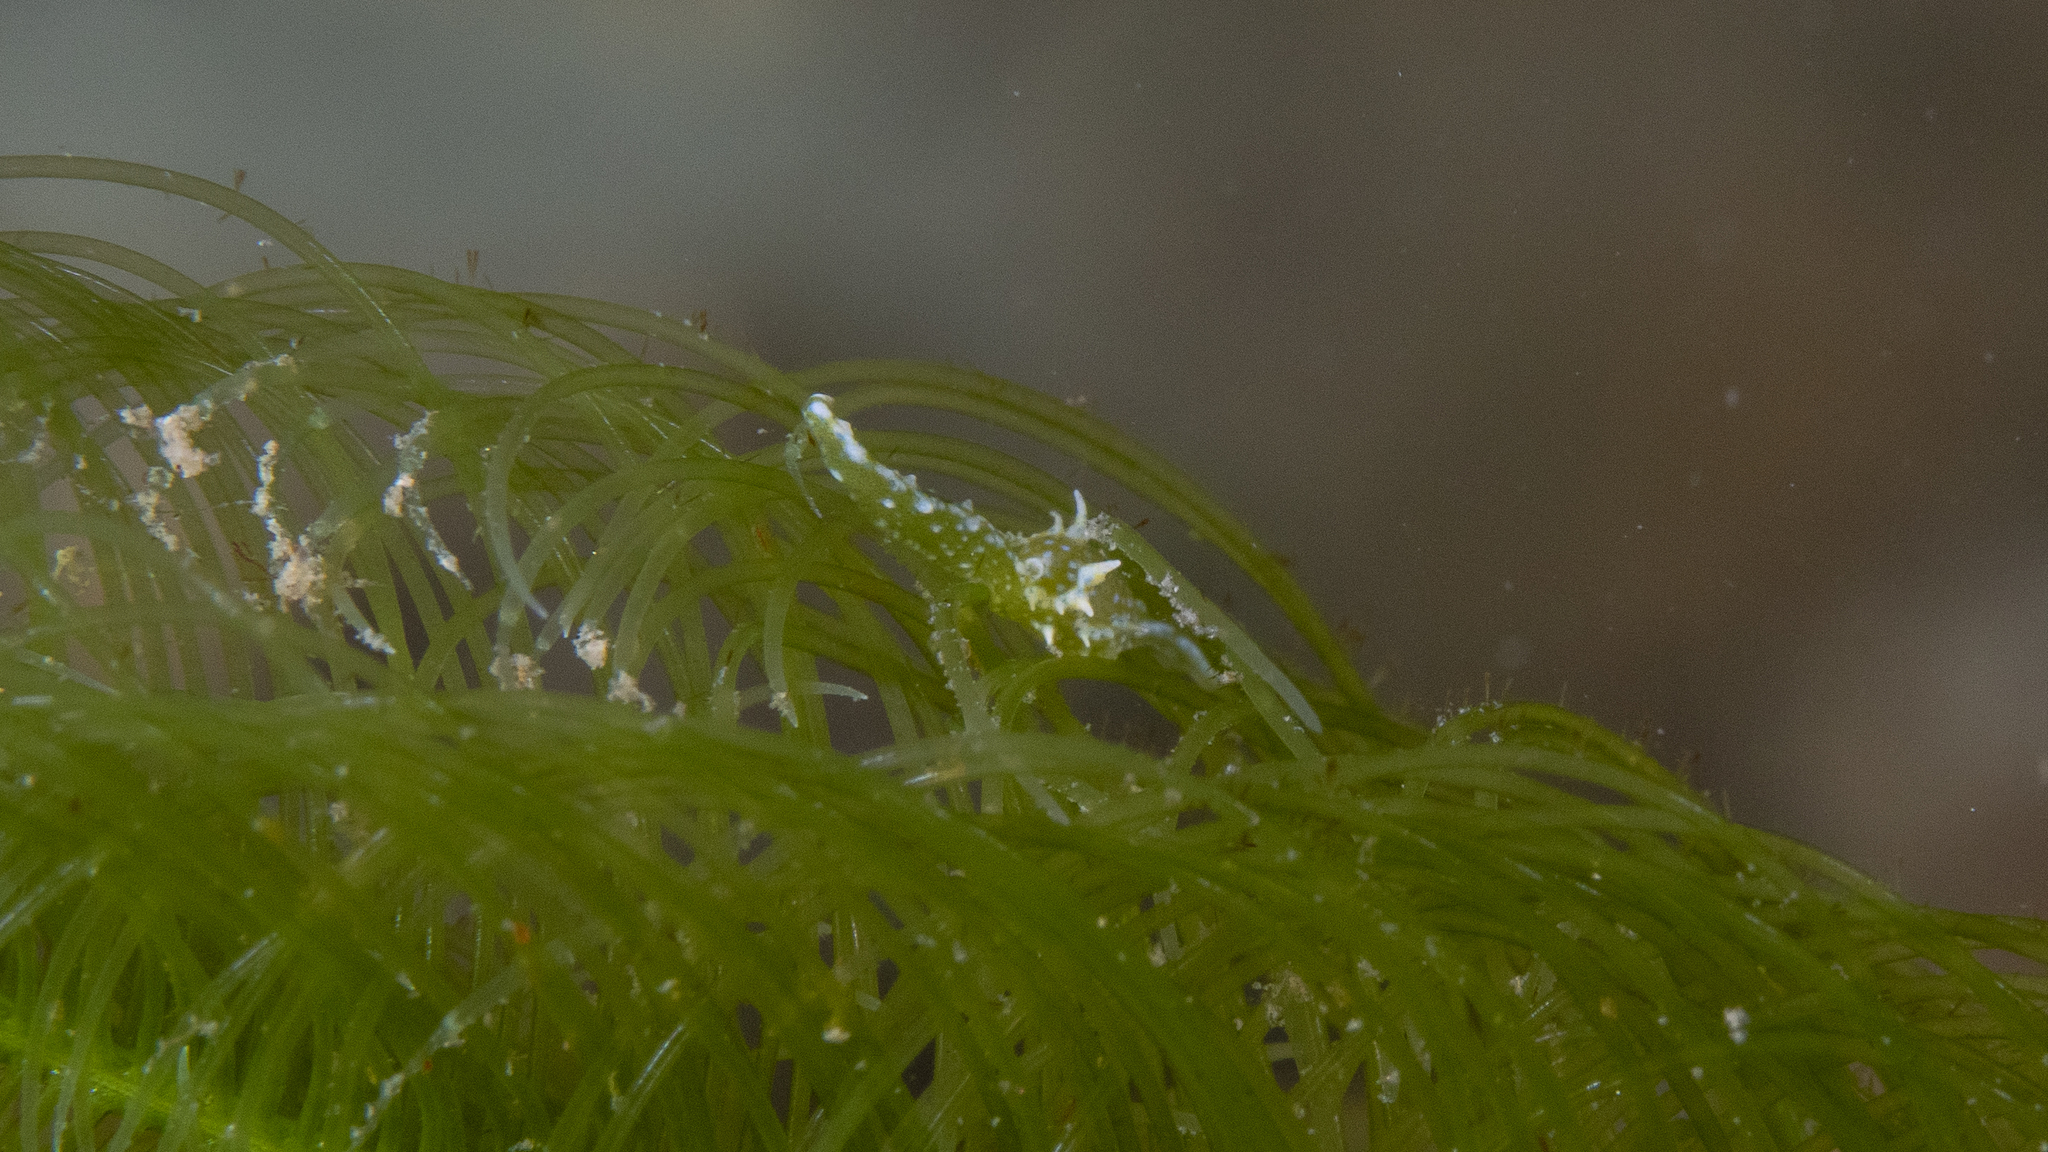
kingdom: Animalia
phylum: Mollusca
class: Gastropoda
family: Oxynoidae
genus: Oxynoe
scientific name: Oxynoe viridis
